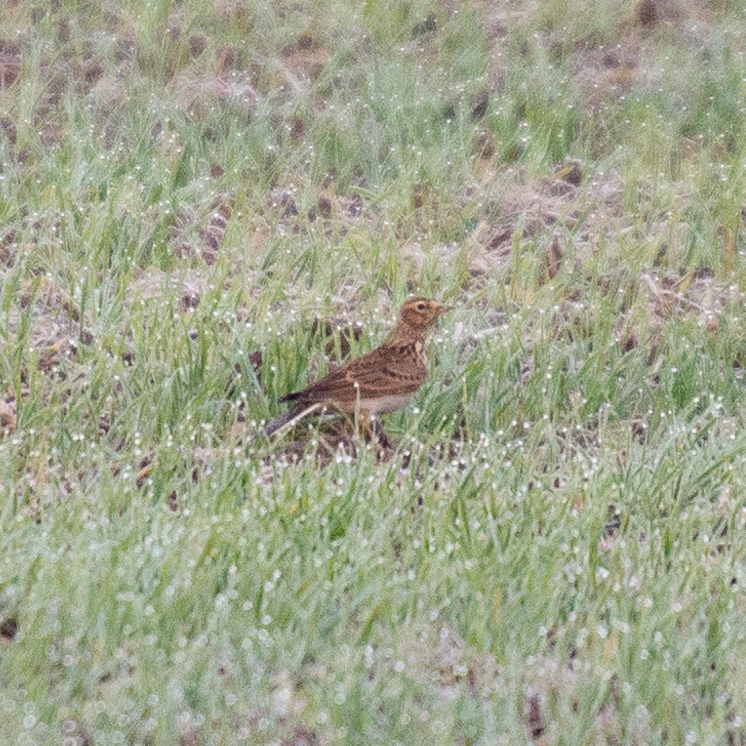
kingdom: Animalia
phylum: Chordata
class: Aves
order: Passeriformes
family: Alaudidae
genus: Alauda
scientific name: Alauda arvensis
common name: Eurasian skylark
